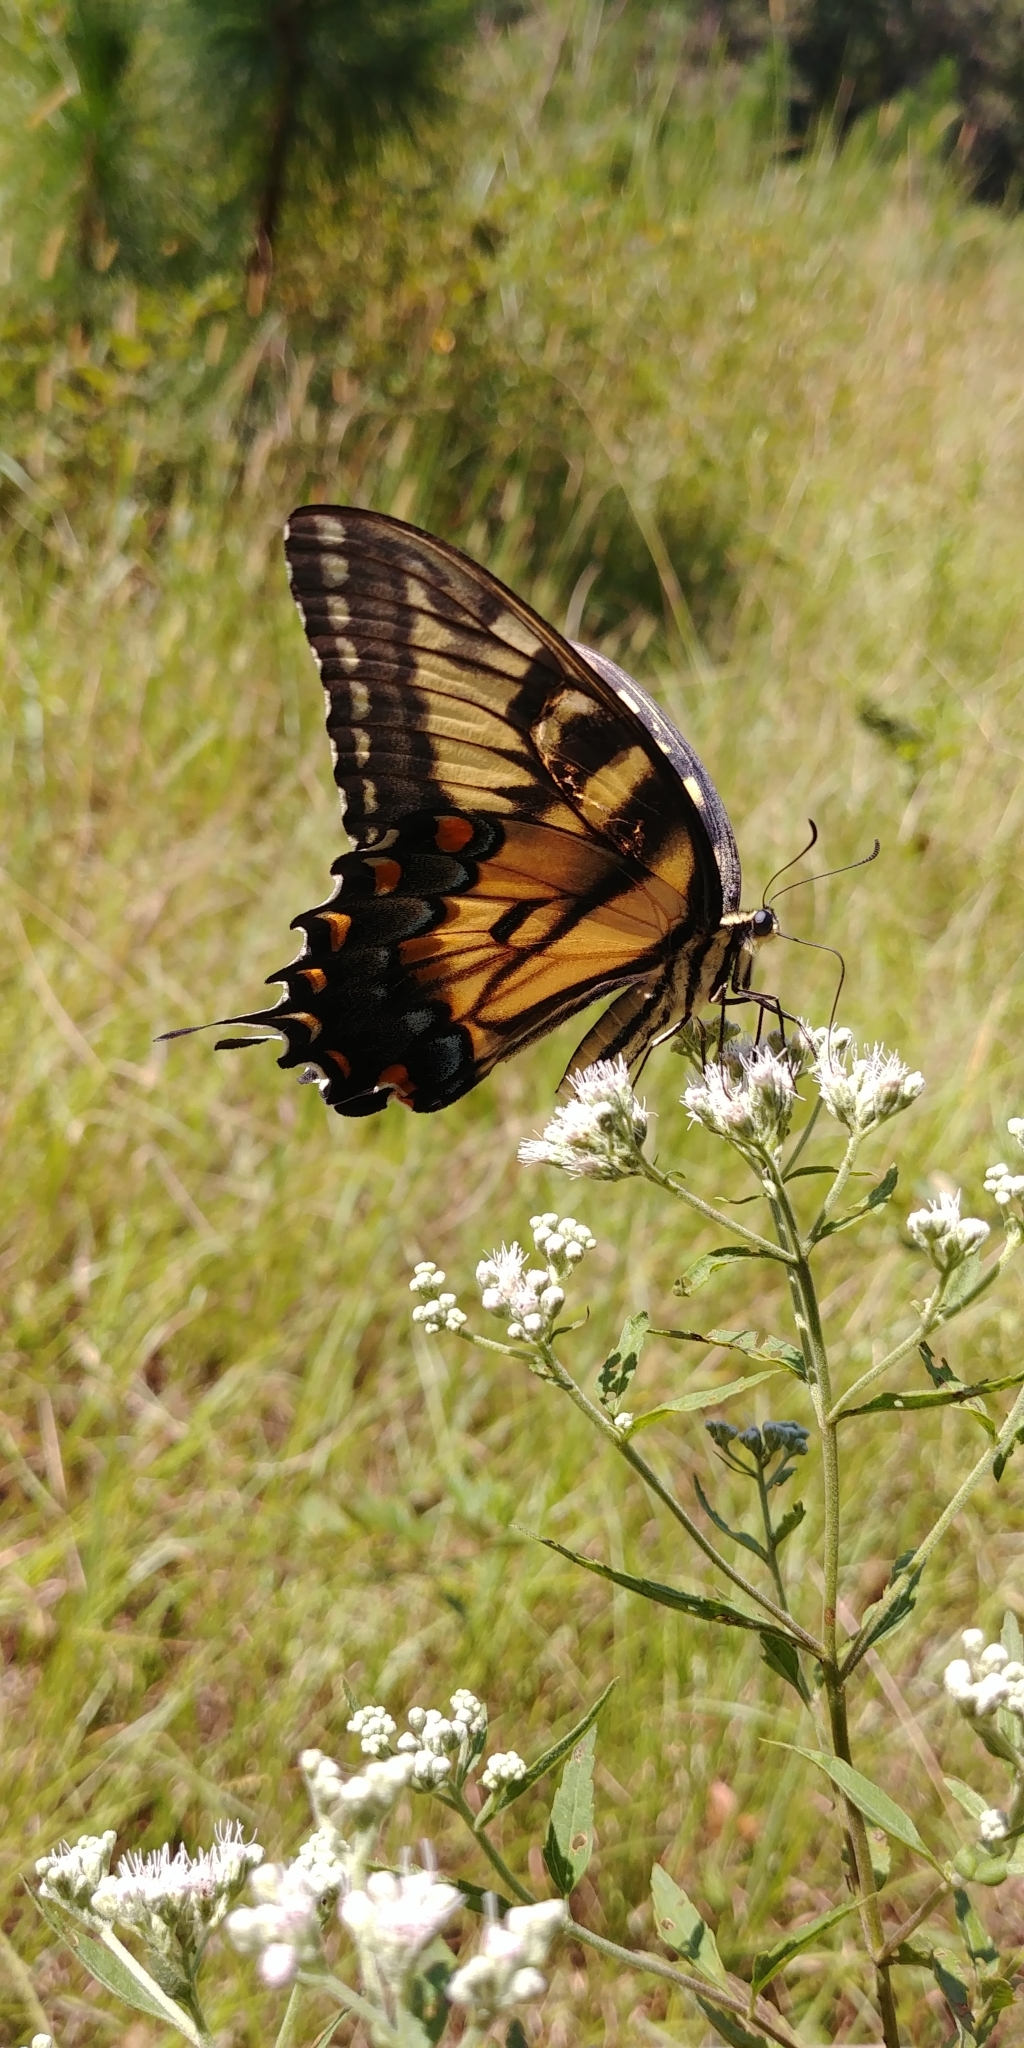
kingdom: Animalia
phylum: Arthropoda
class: Insecta
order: Lepidoptera
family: Papilionidae
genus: Papilio
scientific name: Papilio glaucus
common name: Tiger swallowtail
